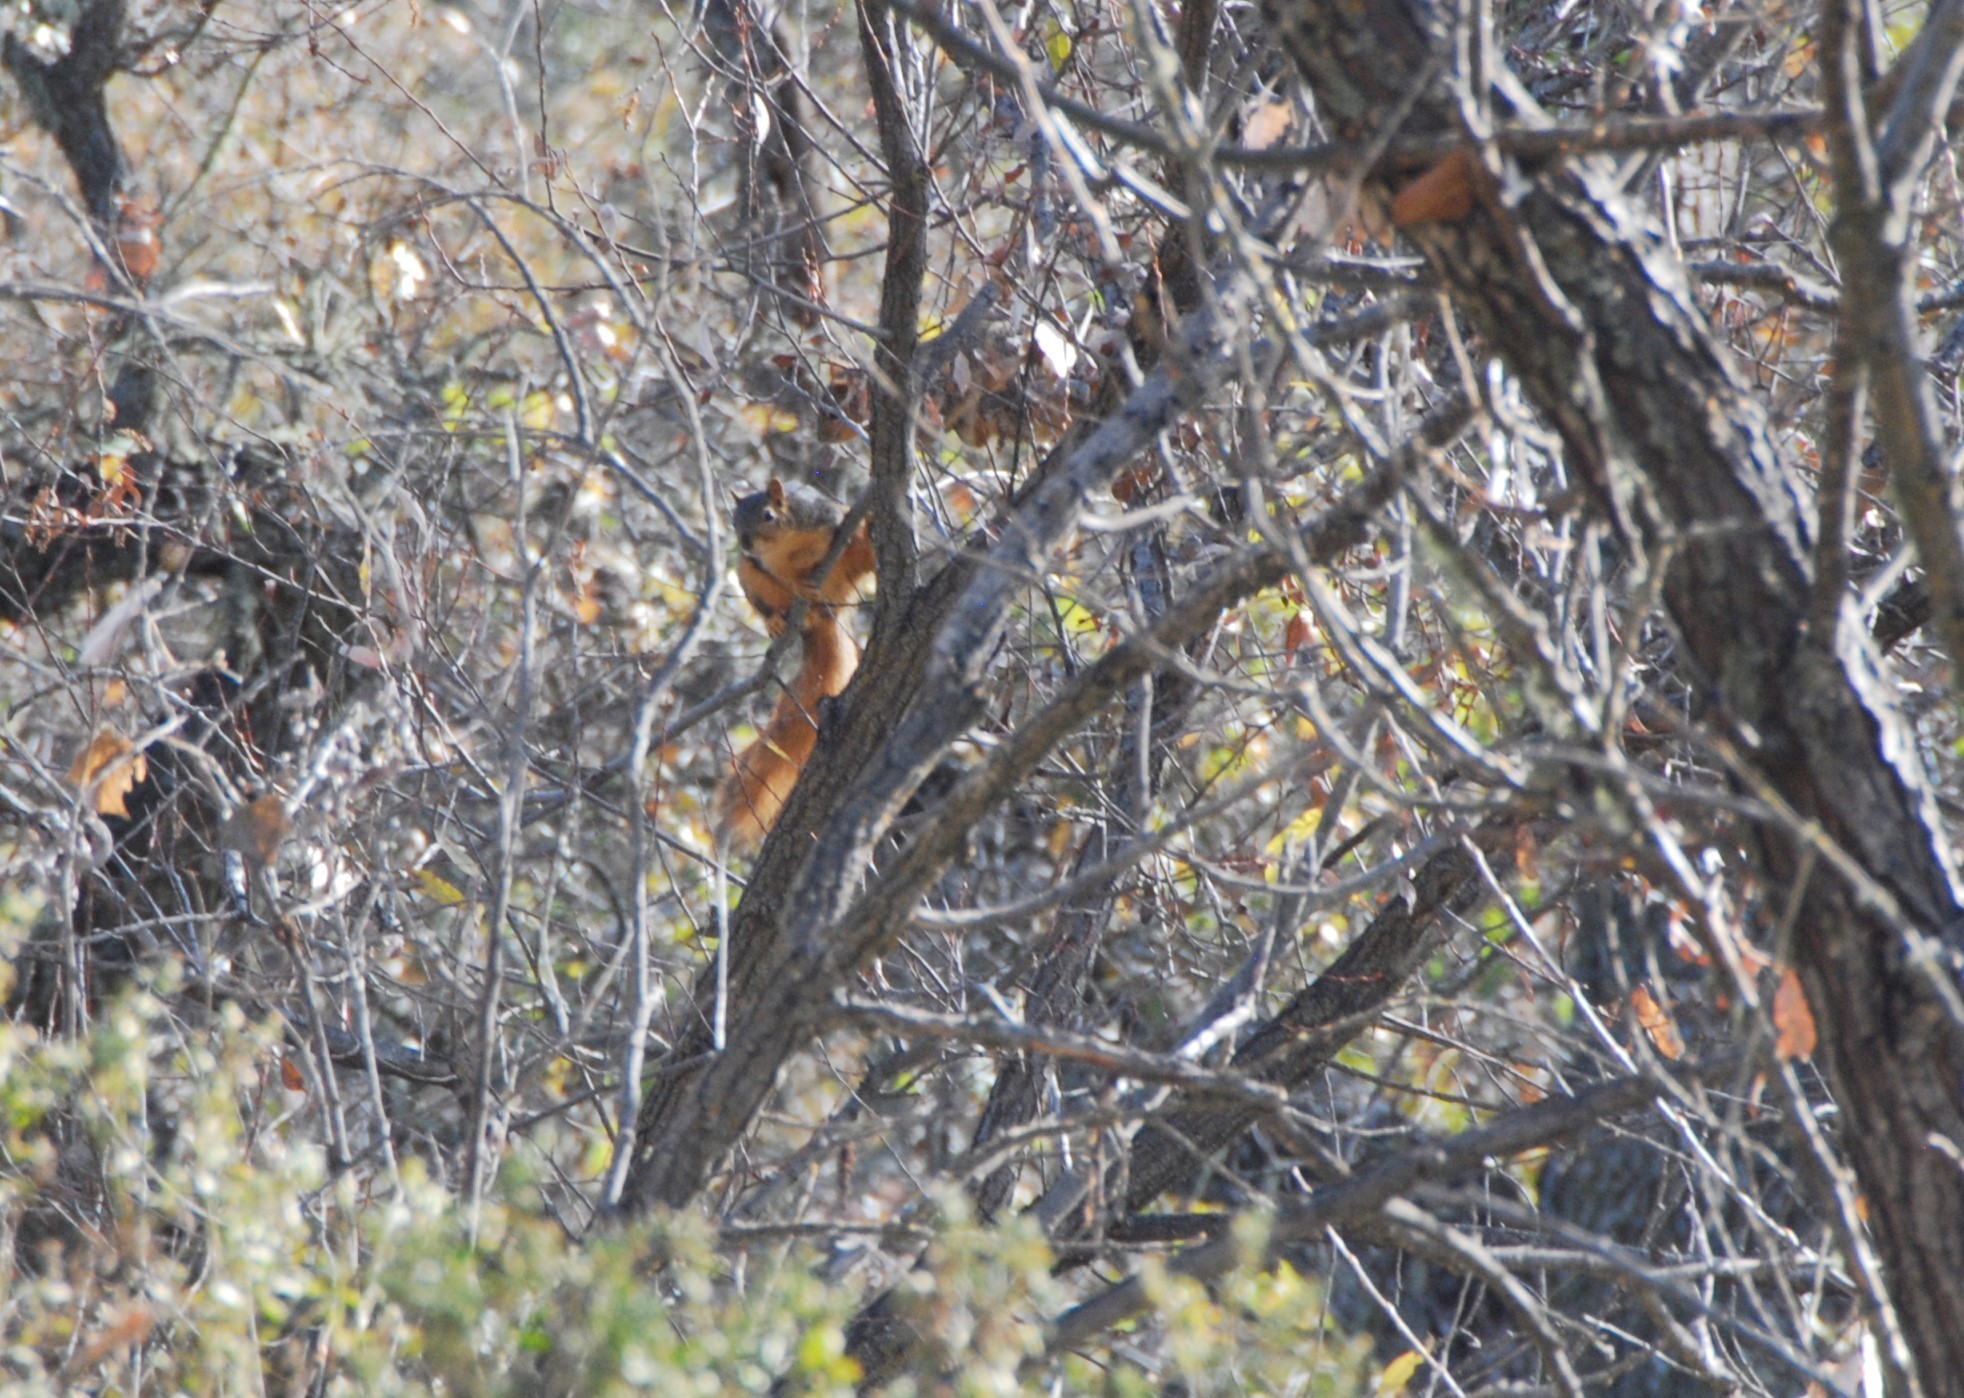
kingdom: Animalia
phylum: Chordata
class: Mammalia
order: Rodentia
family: Sciuridae
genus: Sciurus
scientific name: Sciurus niger
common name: Fox squirrel
